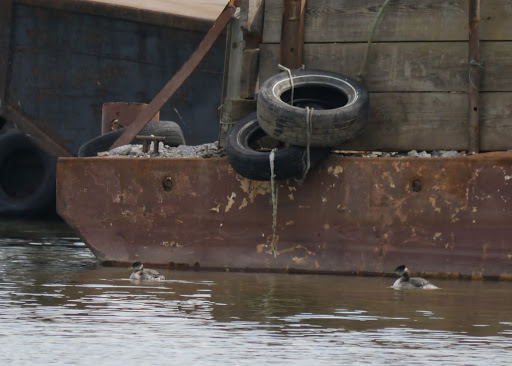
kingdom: Animalia
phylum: Chordata
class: Aves
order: Podicipediformes
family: Podicipedidae
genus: Podiceps
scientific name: Podiceps grisegena
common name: Red-necked grebe
